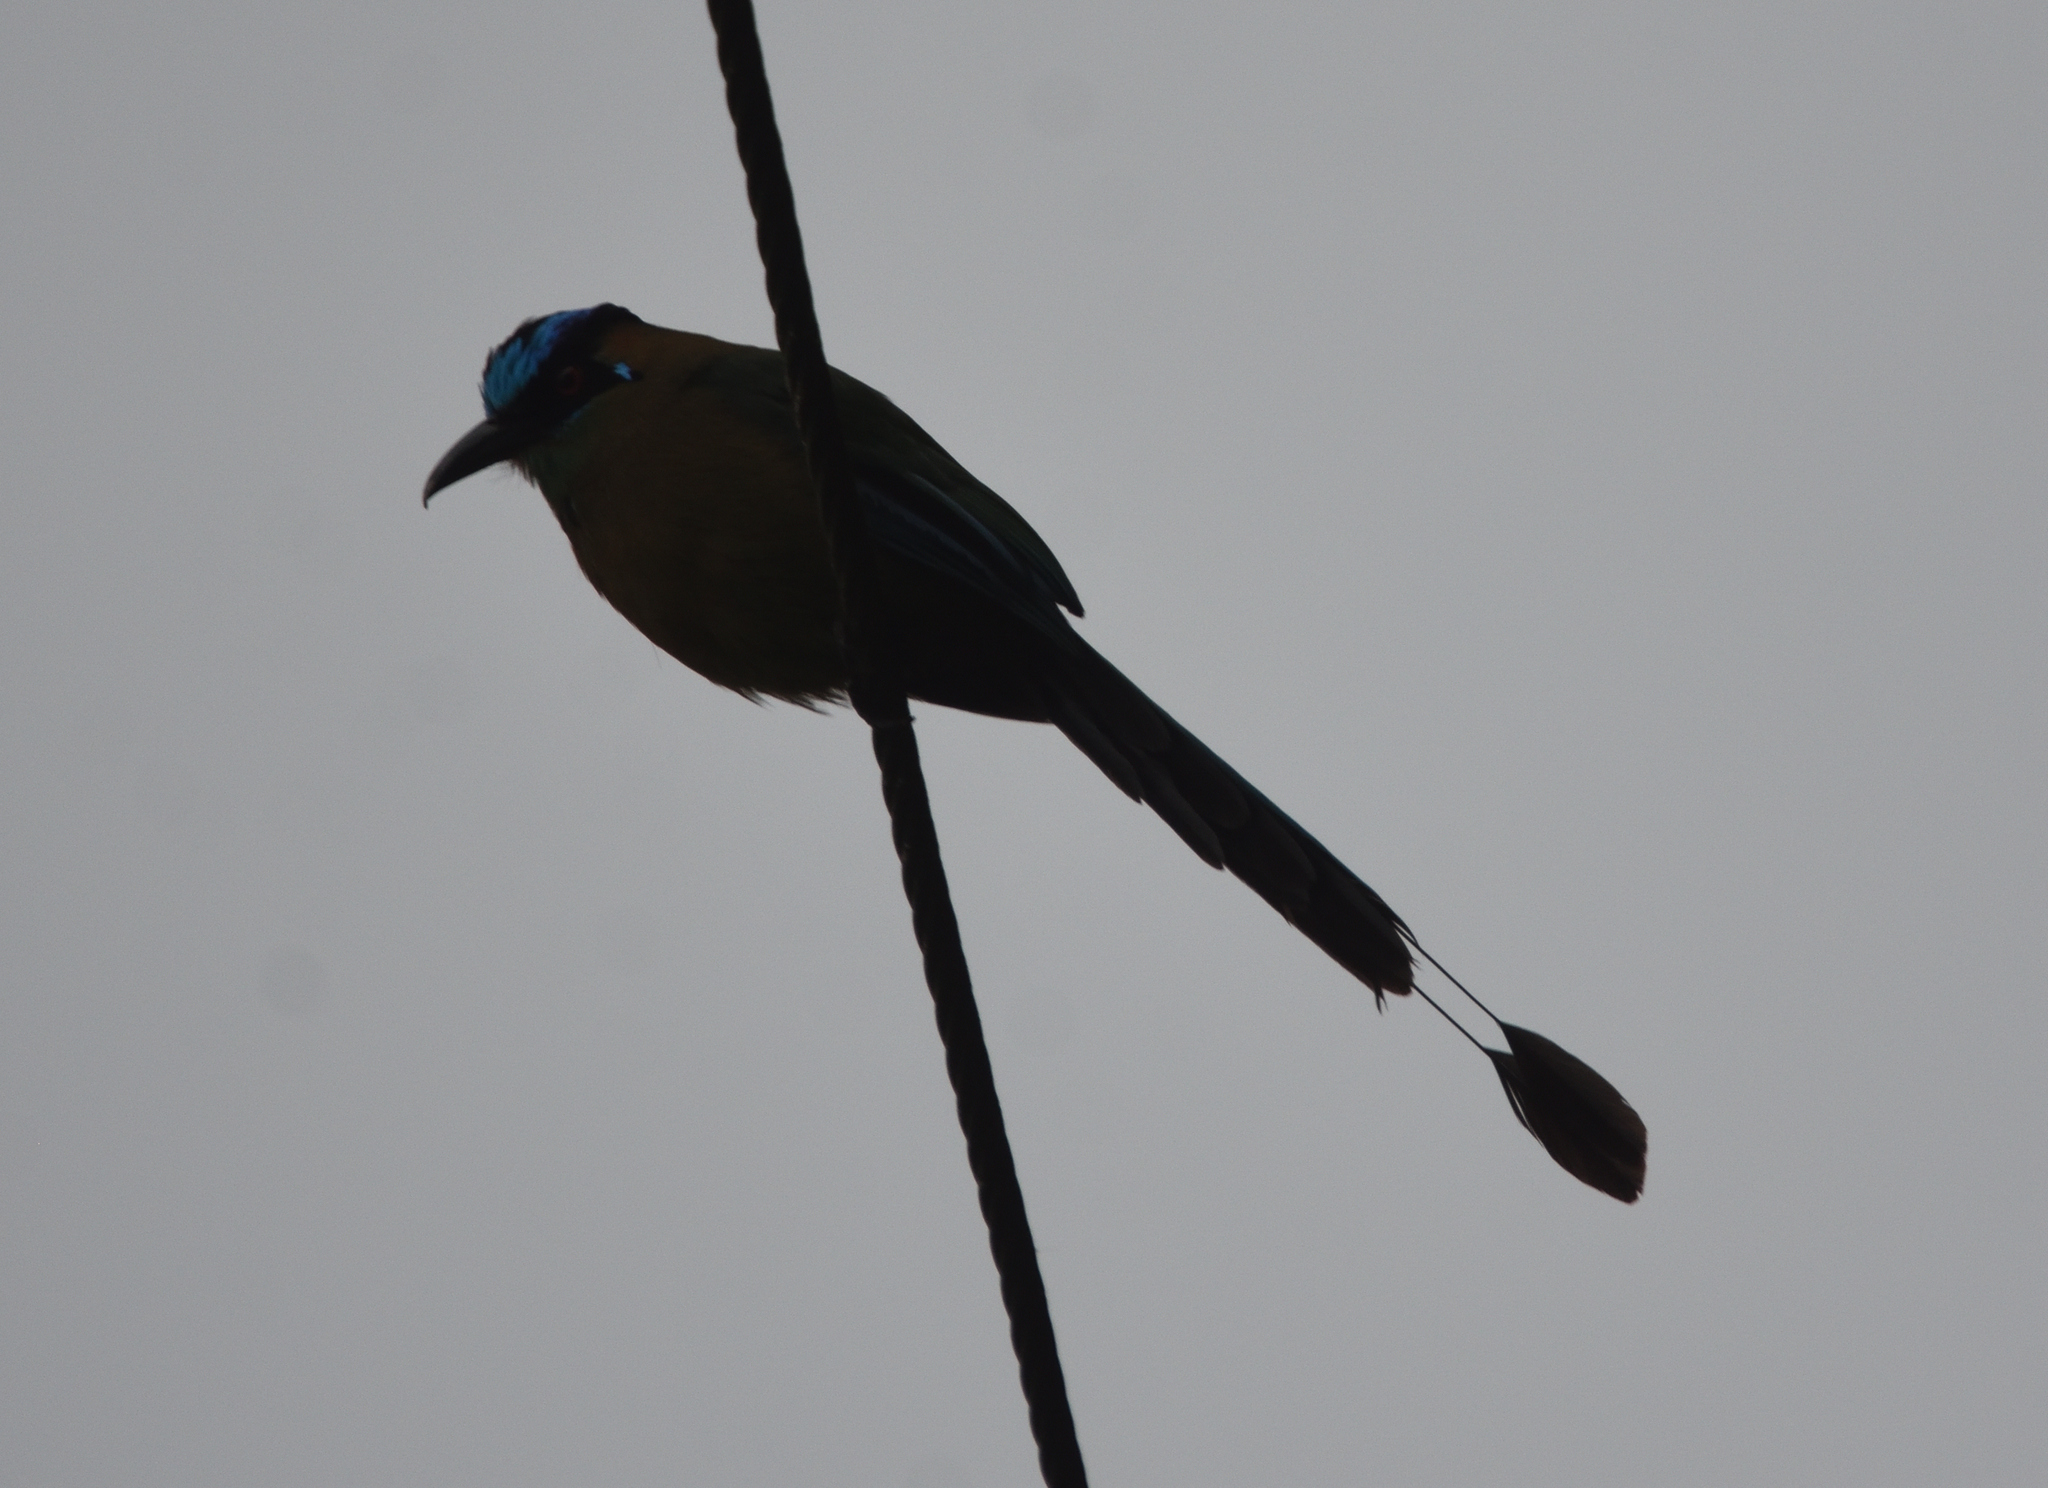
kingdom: Animalia
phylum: Chordata
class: Aves
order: Coraciiformes
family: Momotidae
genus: Momotus
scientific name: Momotus aequatorialis
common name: Andean motmot
